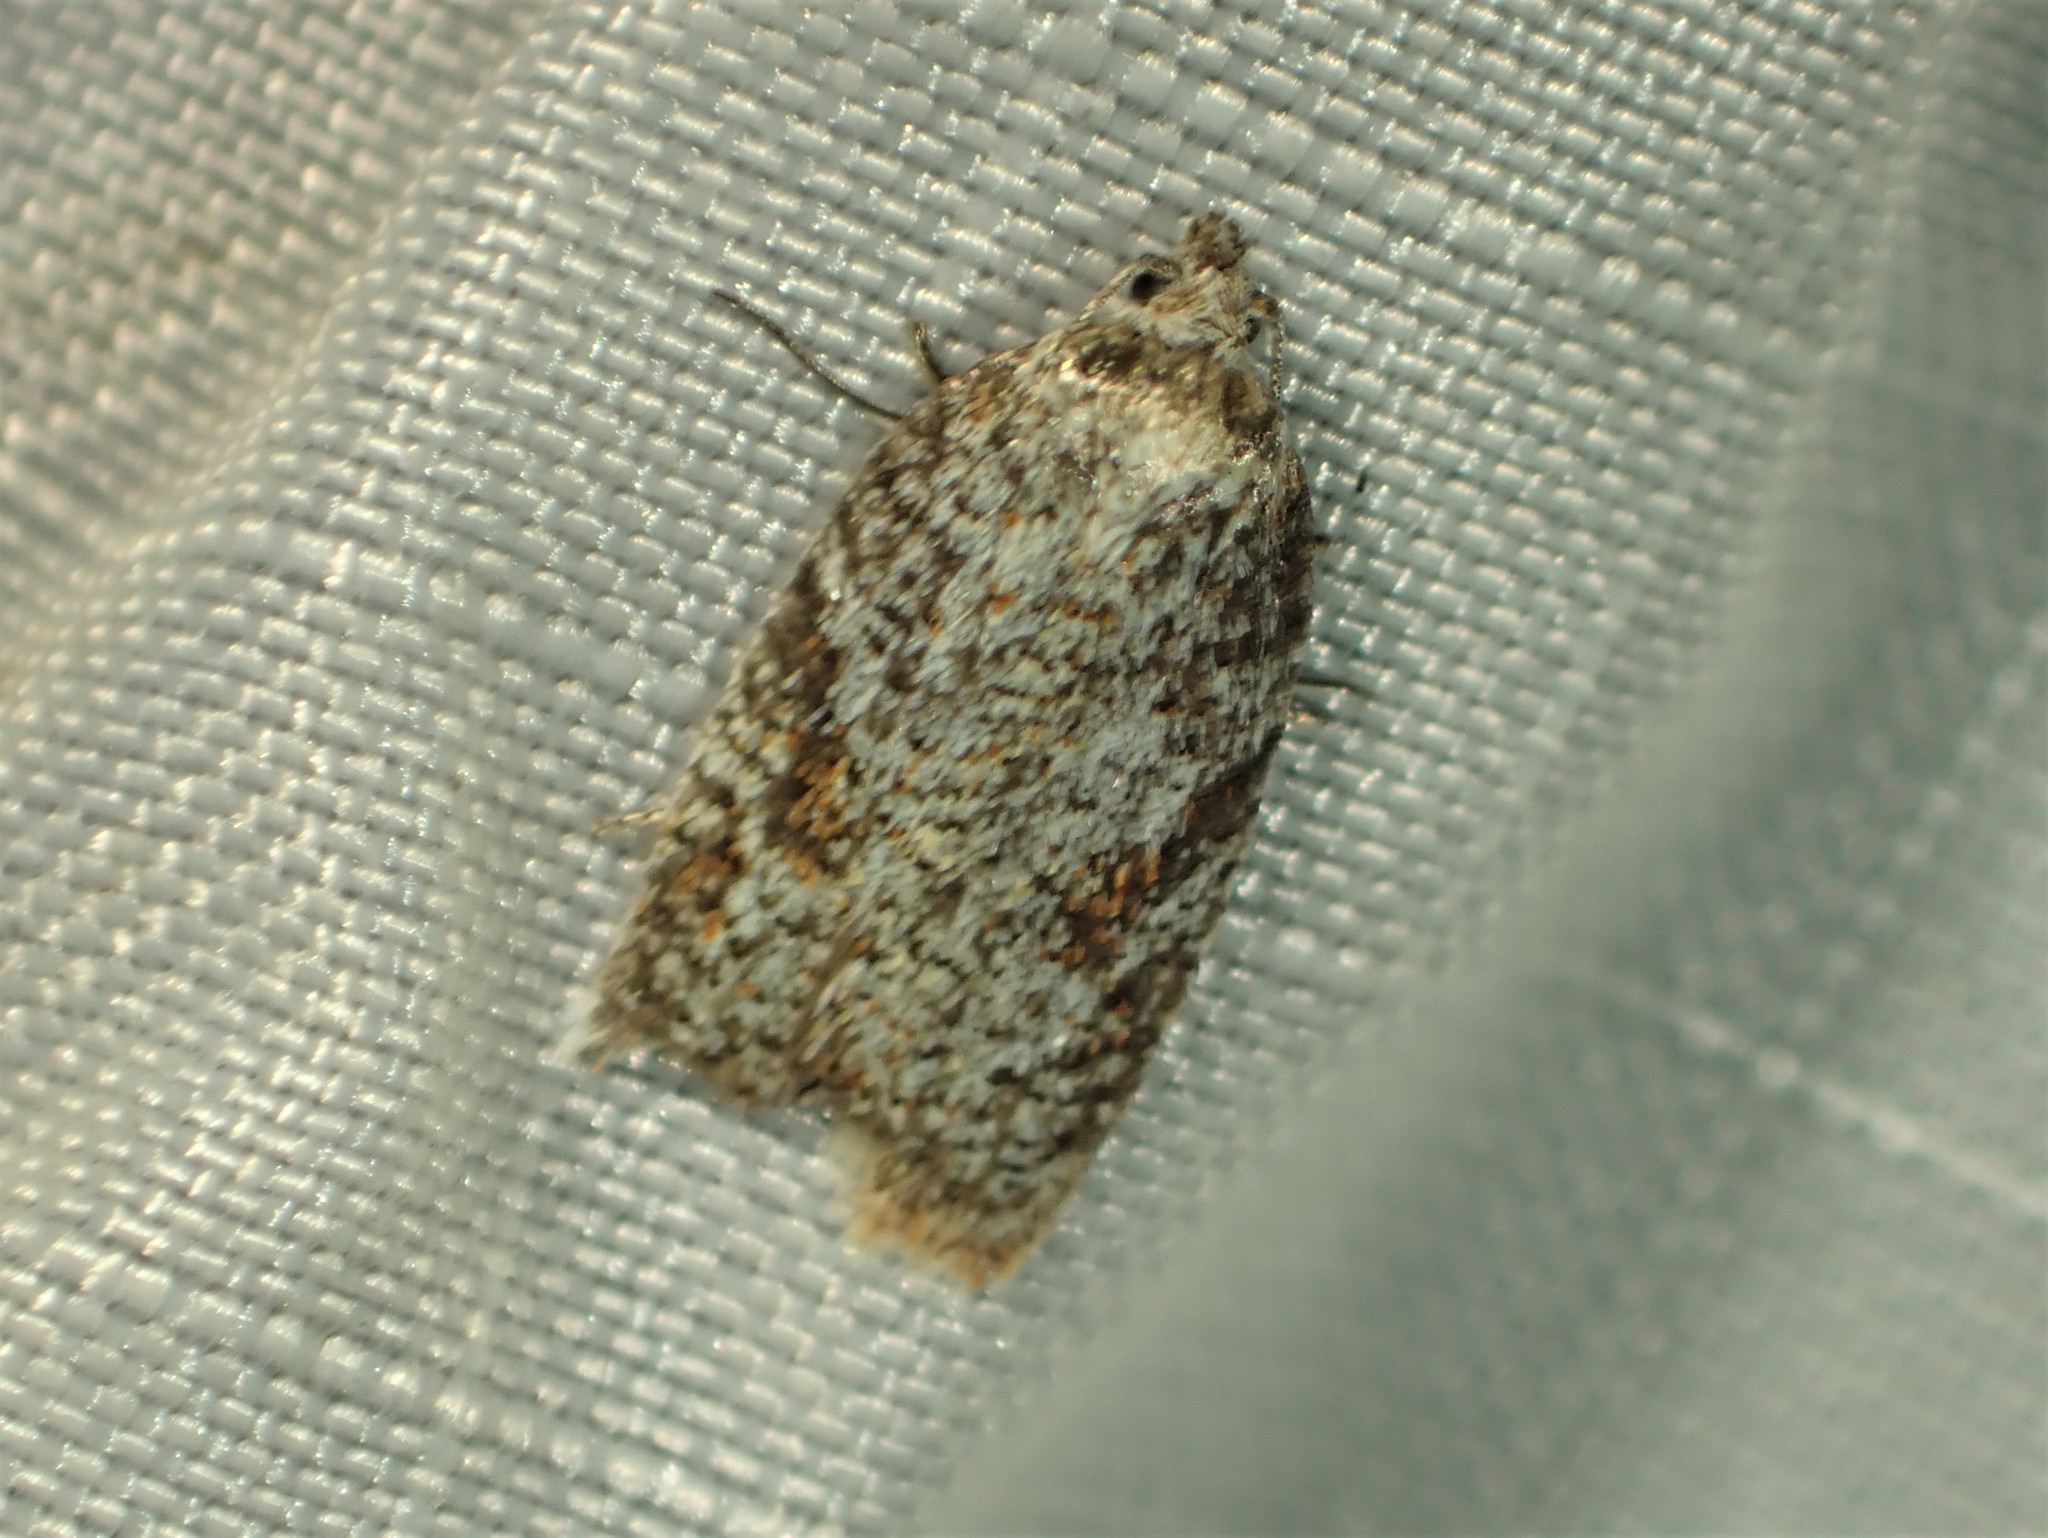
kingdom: Animalia
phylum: Arthropoda
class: Insecta
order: Lepidoptera
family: Tortricidae
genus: Acleris
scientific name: Acleris oxycoccana
